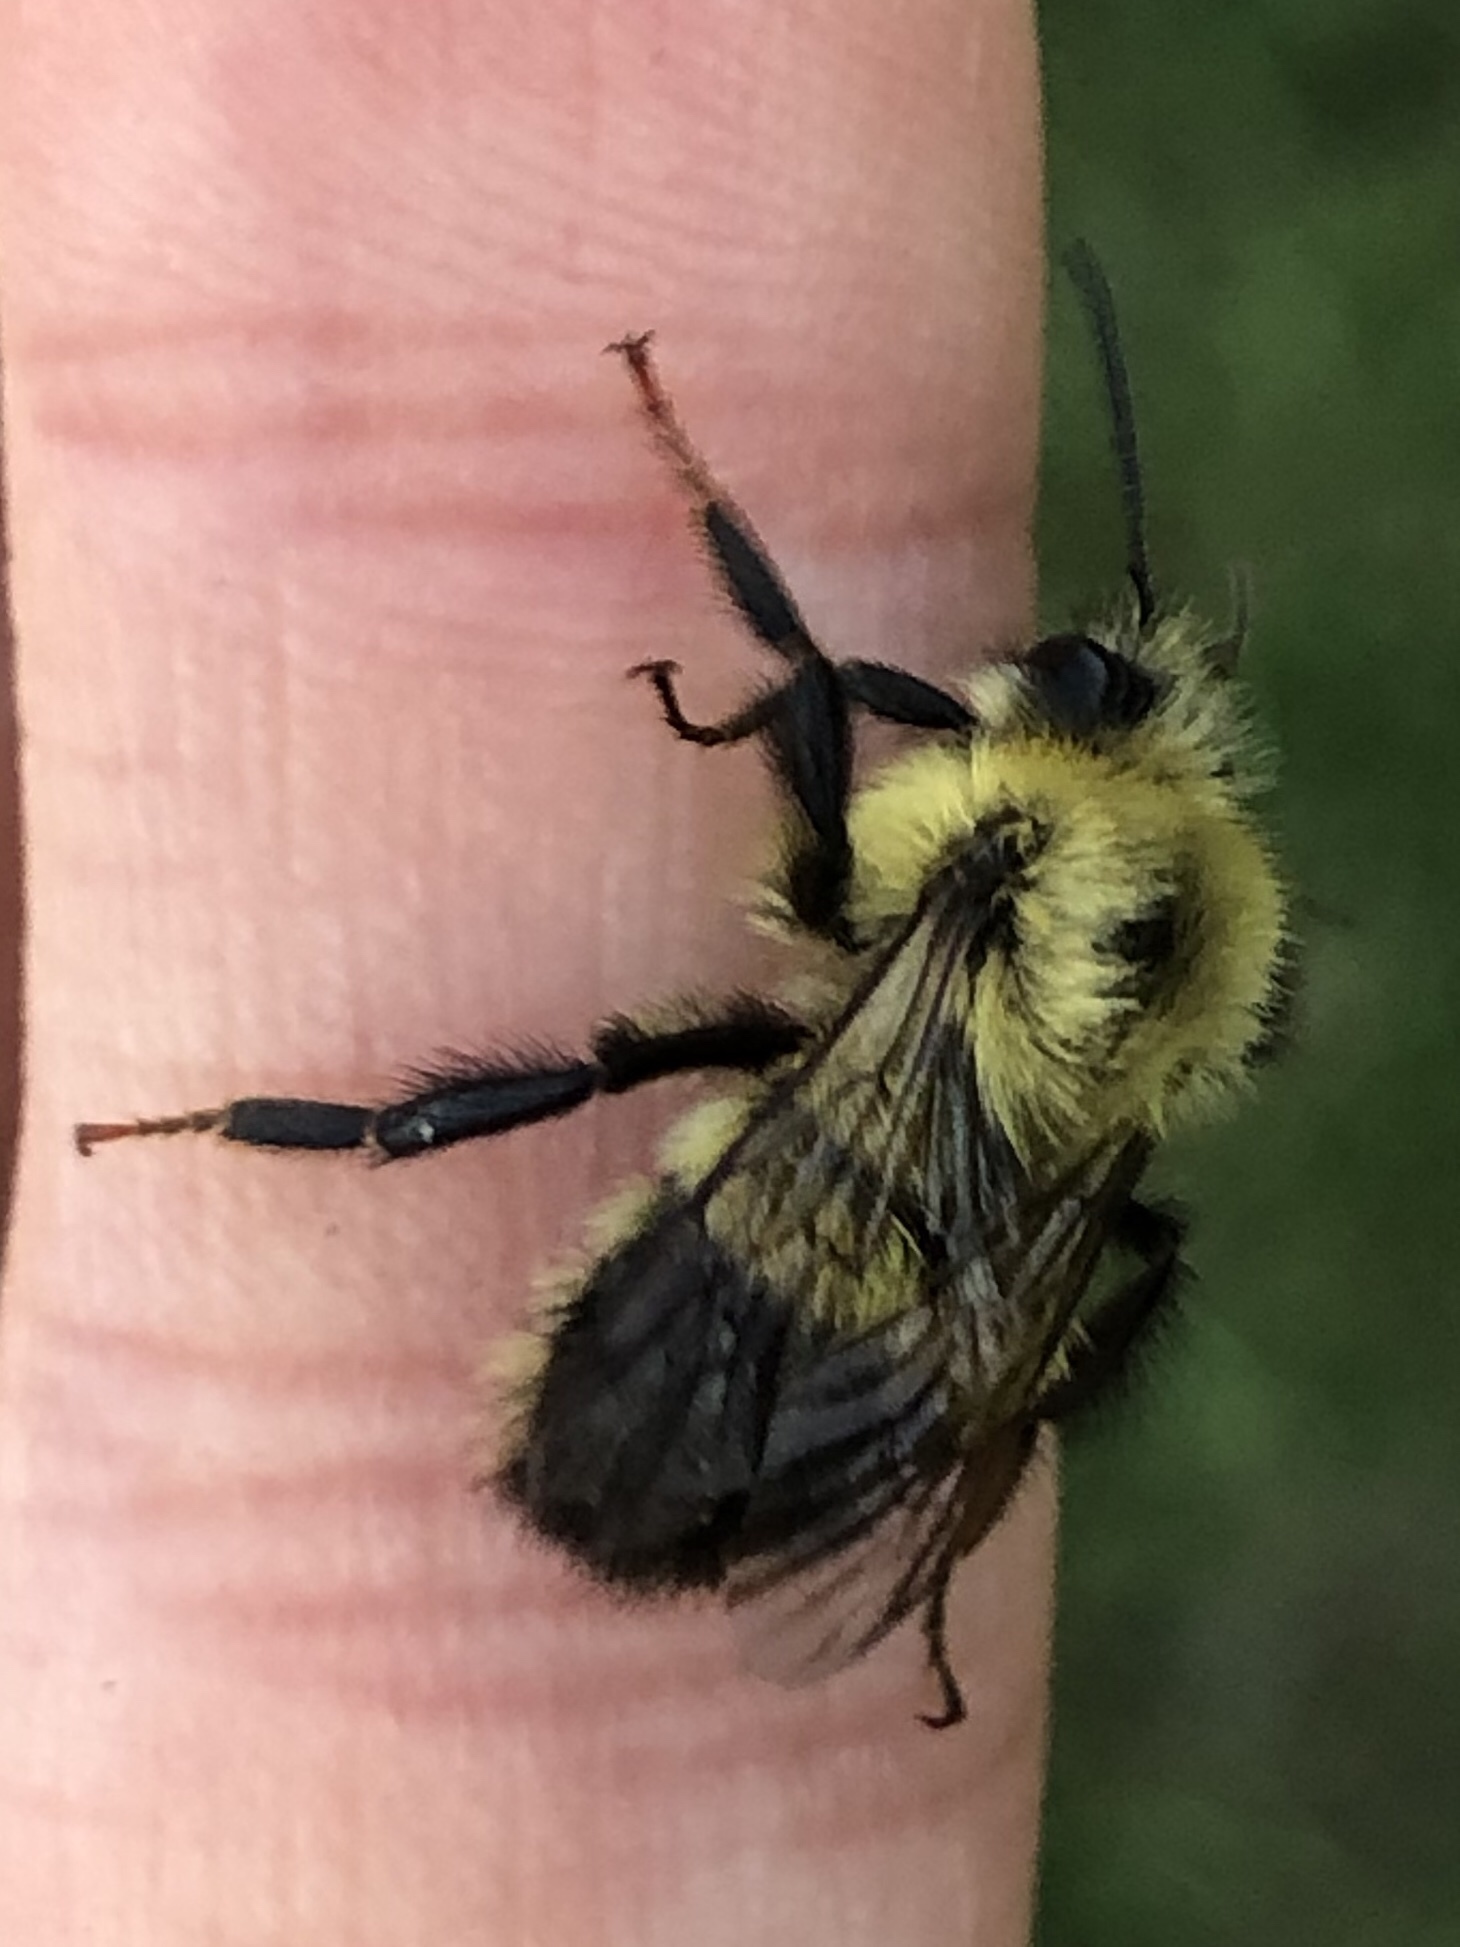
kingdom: Animalia
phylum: Arthropoda
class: Insecta
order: Hymenoptera
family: Apidae
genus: Bombus
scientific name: Bombus vagans
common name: Half-black bumble bee
